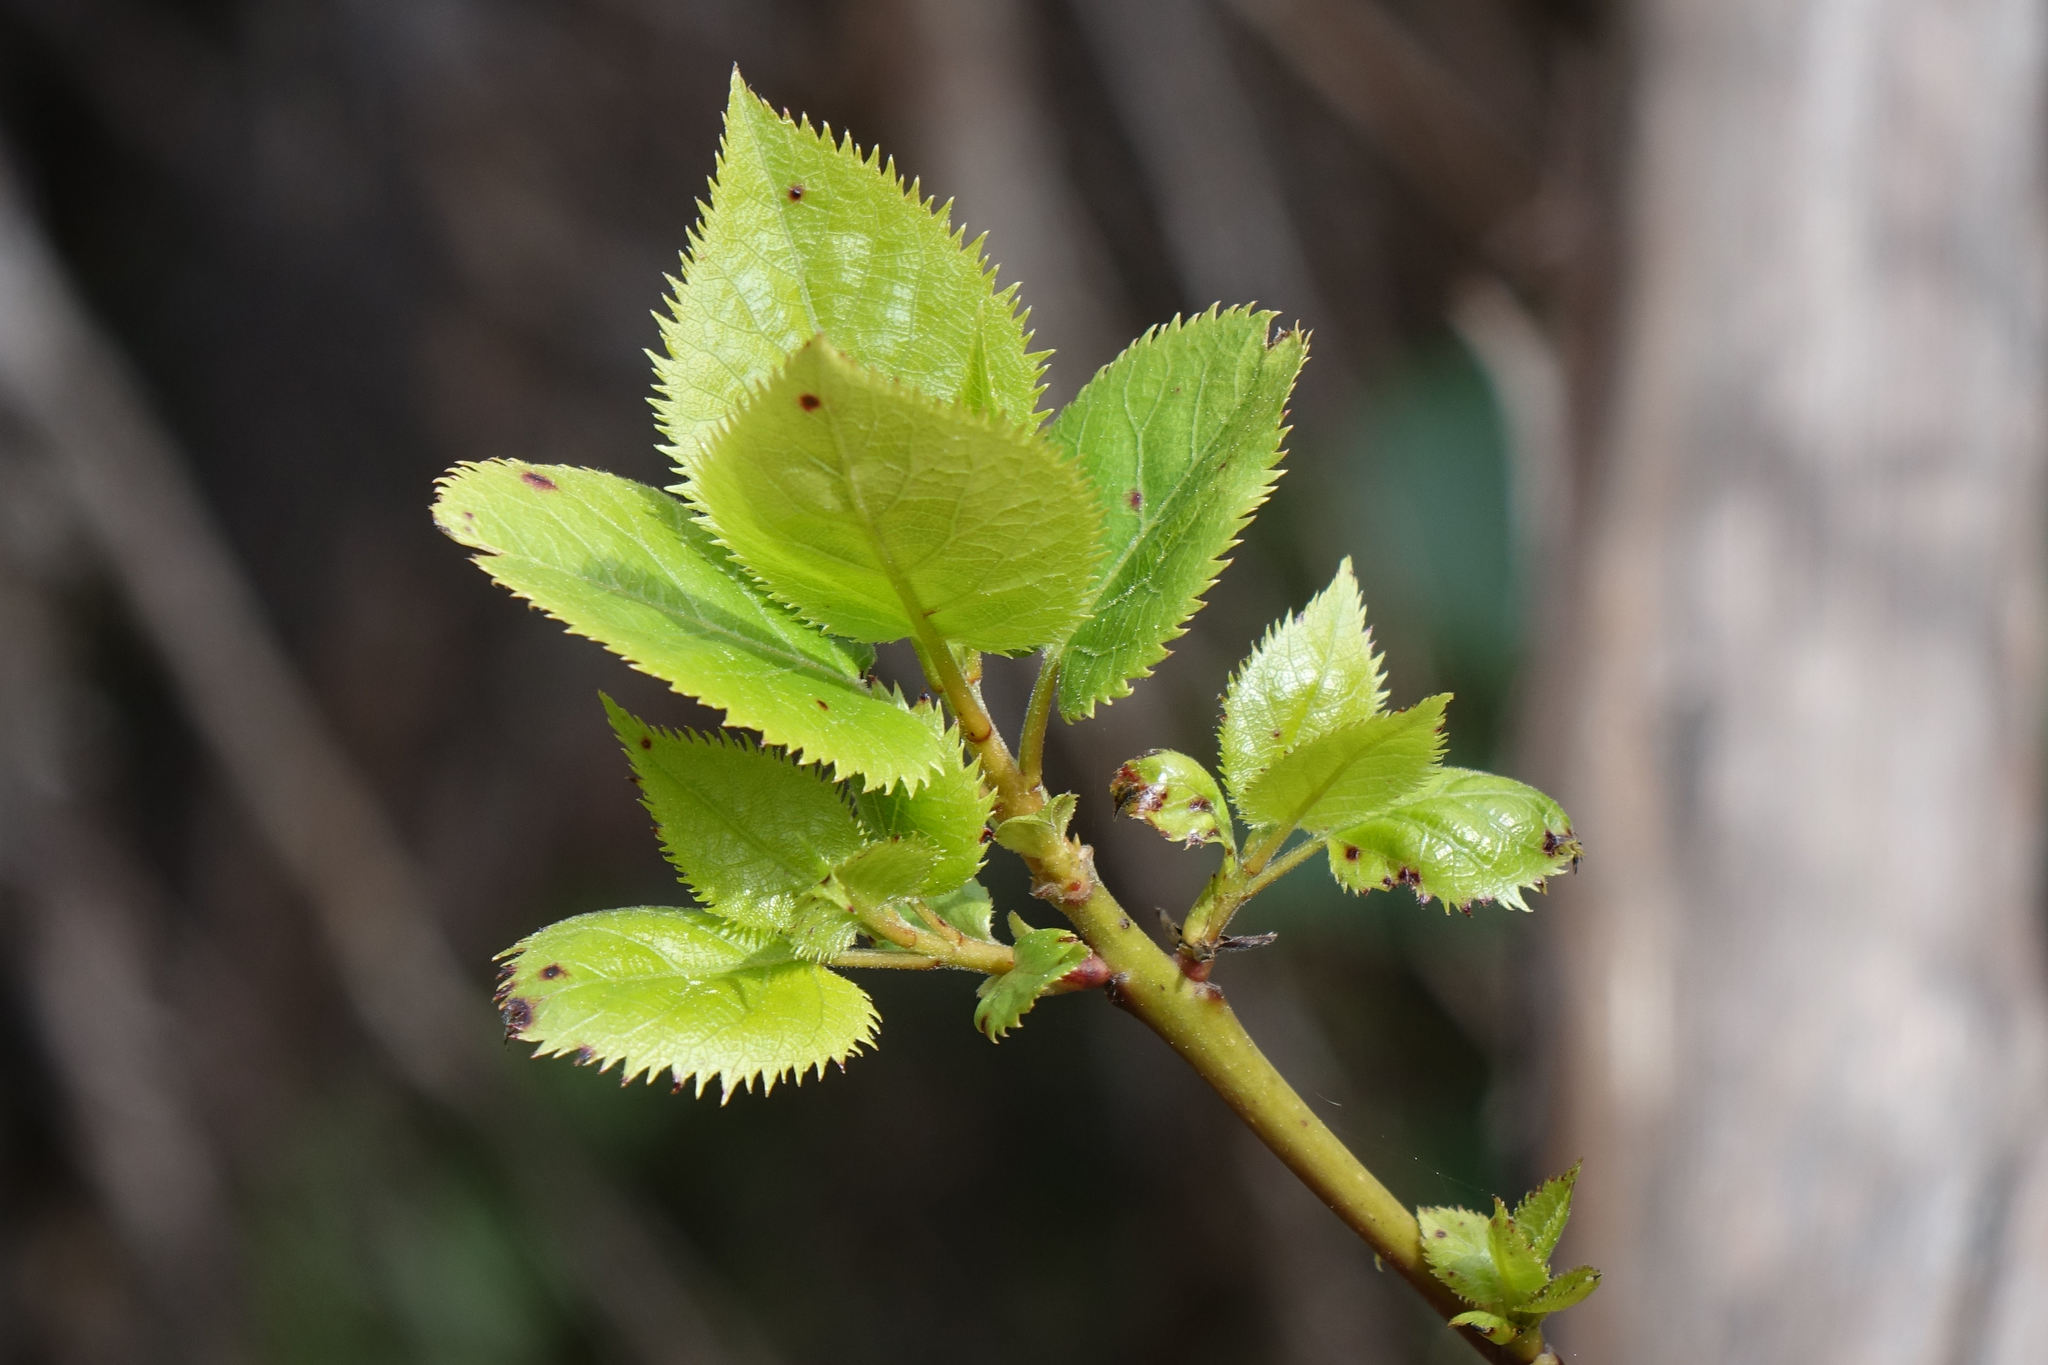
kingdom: Plantae
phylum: Tracheophyta
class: Magnoliopsida
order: Oxalidales
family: Elaeocarpaceae
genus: Aristotelia
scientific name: Aristotelia serrata
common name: New zealand wineberry
